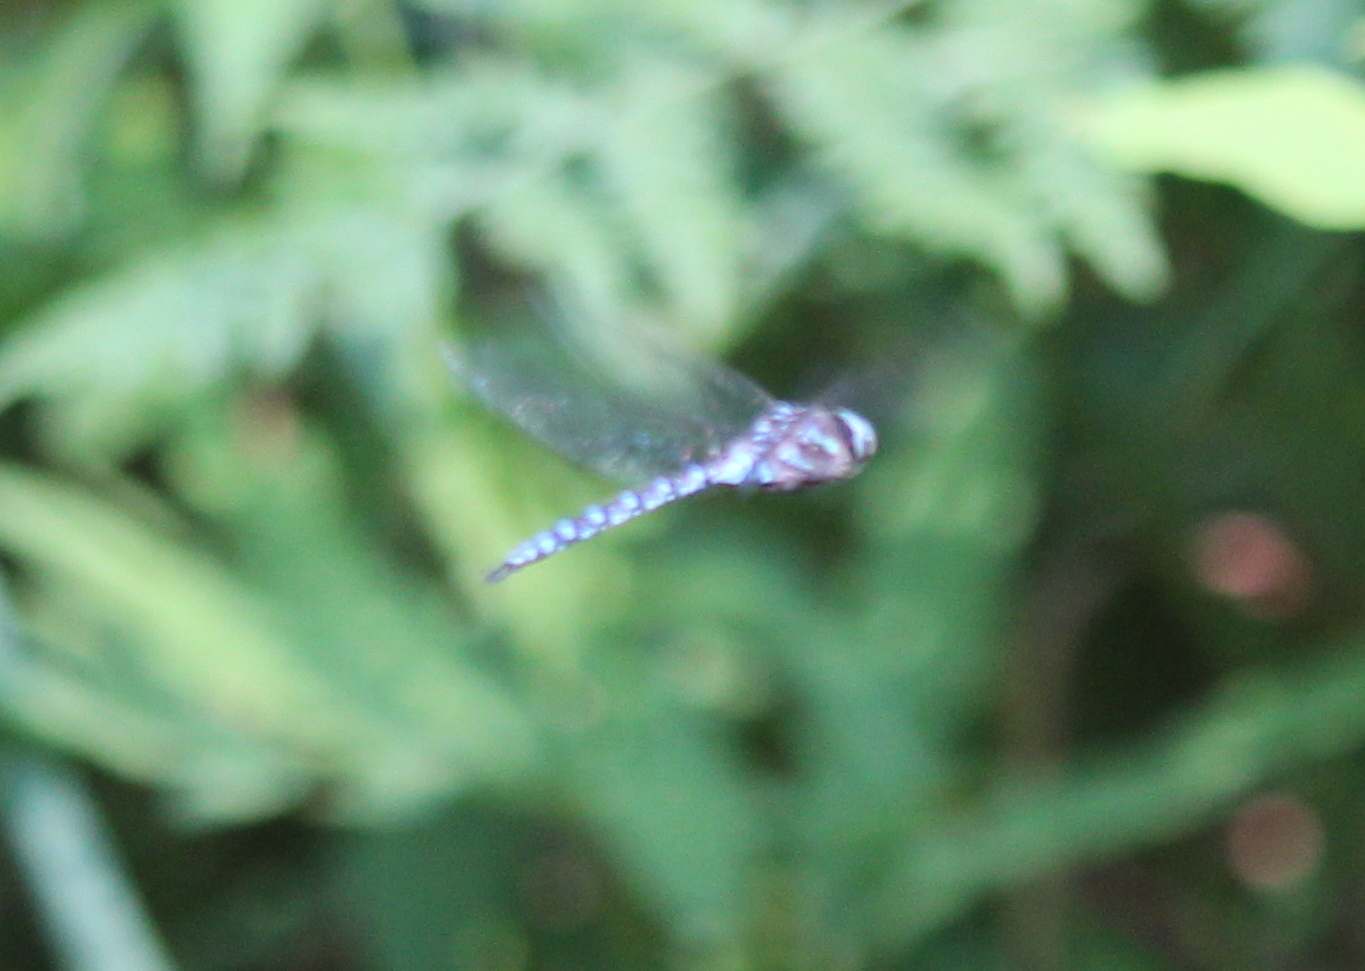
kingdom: Animalia
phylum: Arthropoda
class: Insecta
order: Odonata
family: Aeshnidae
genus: Aeshna
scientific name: Aeshna canadensis
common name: Canada darner
